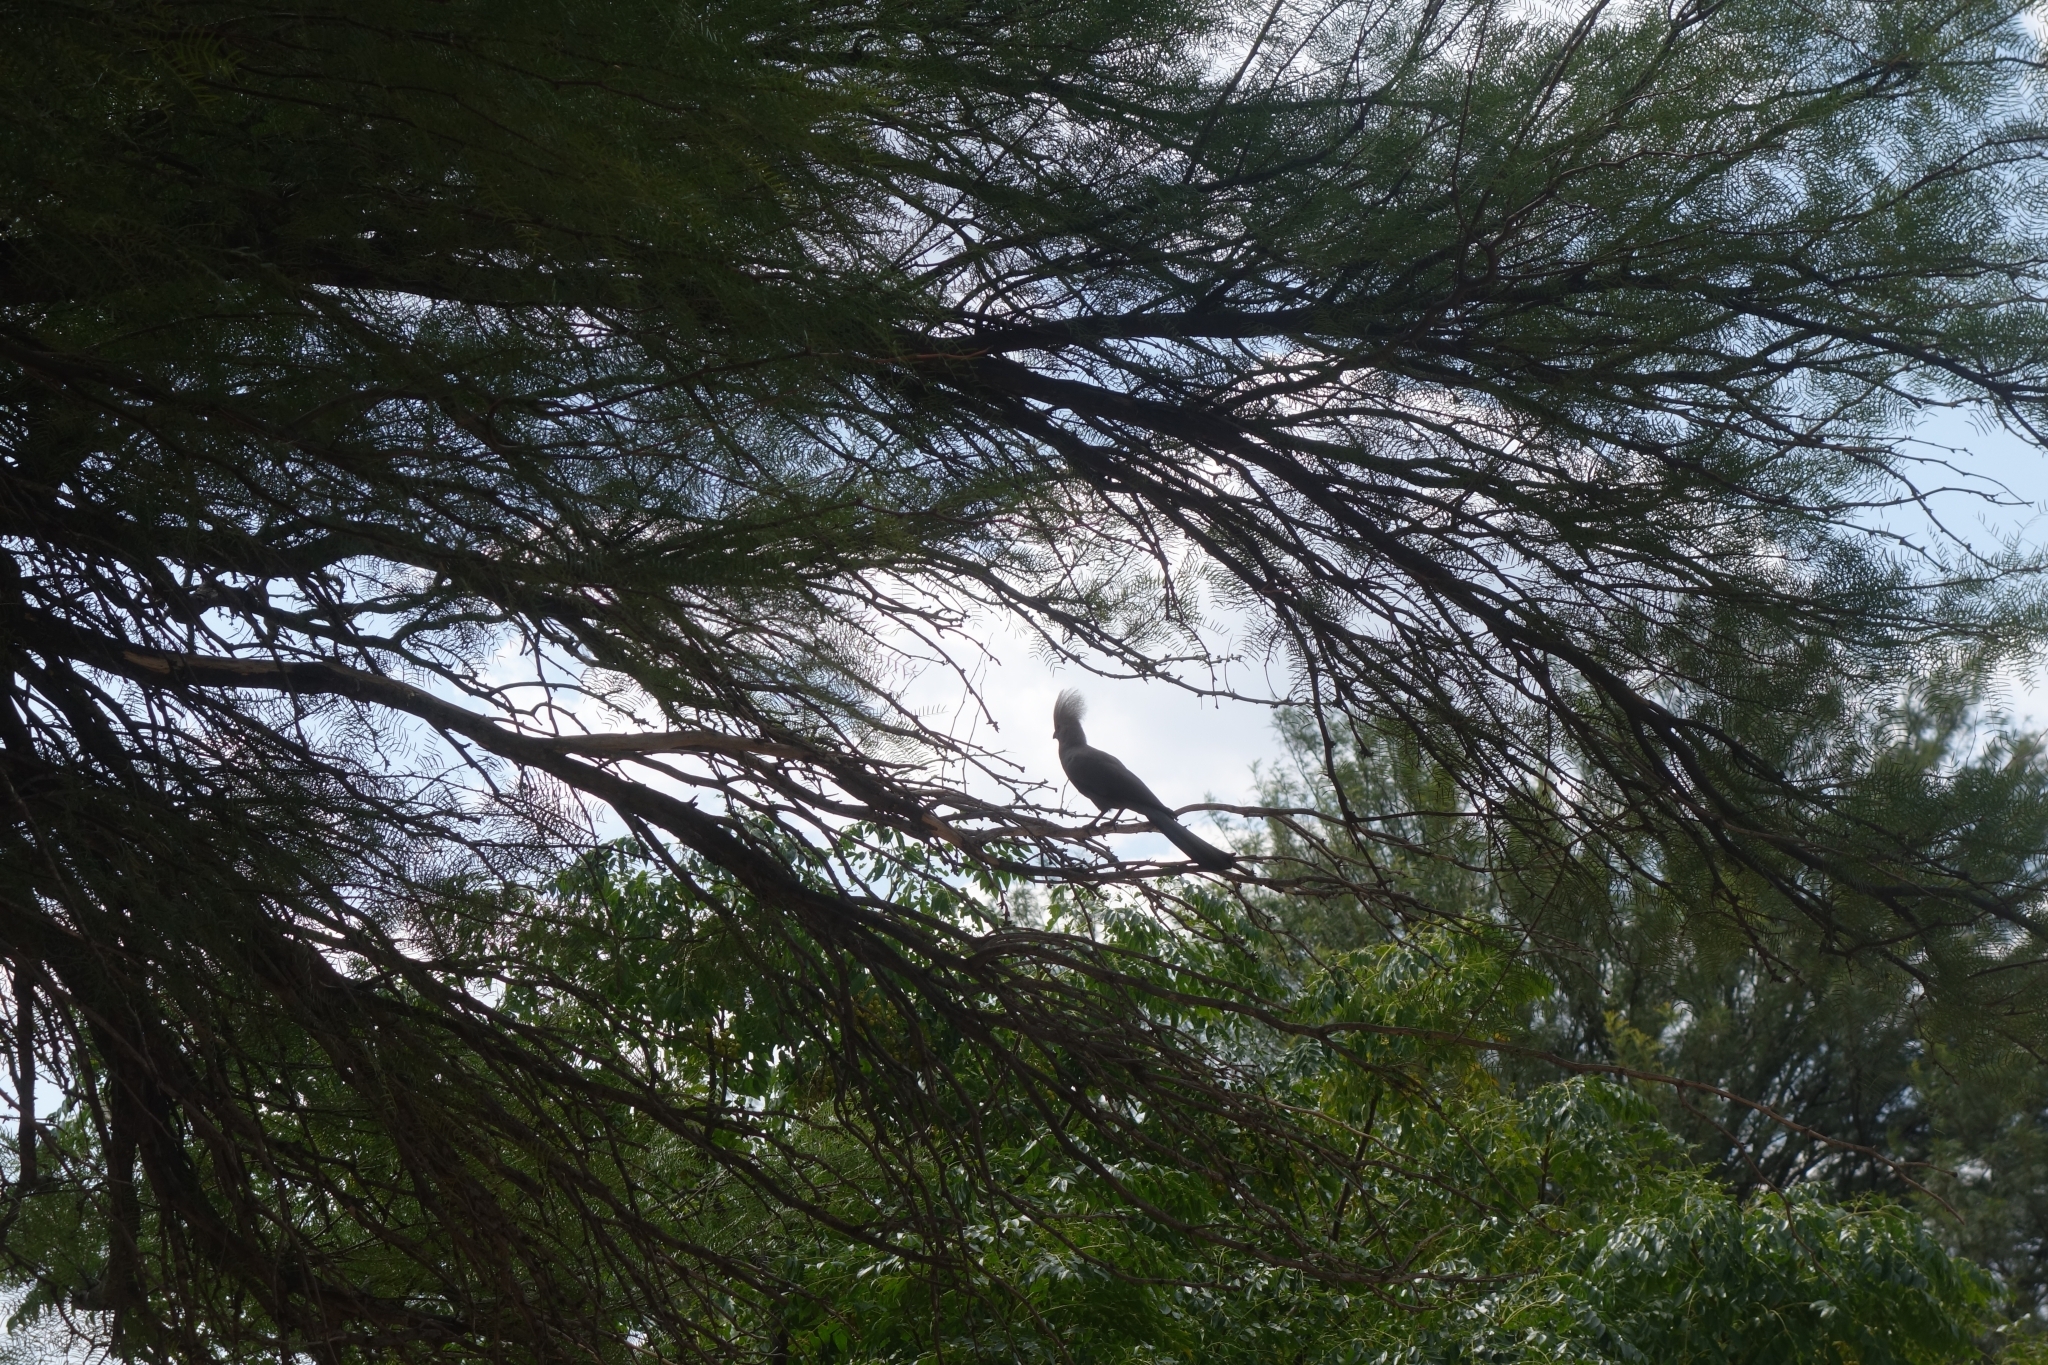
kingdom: Animalia
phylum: Chordata
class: Aves
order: Musophagiformes
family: Musophagidae
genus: Corythaixoides
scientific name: Corythaixoides concolor
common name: Grey go-away-bird
